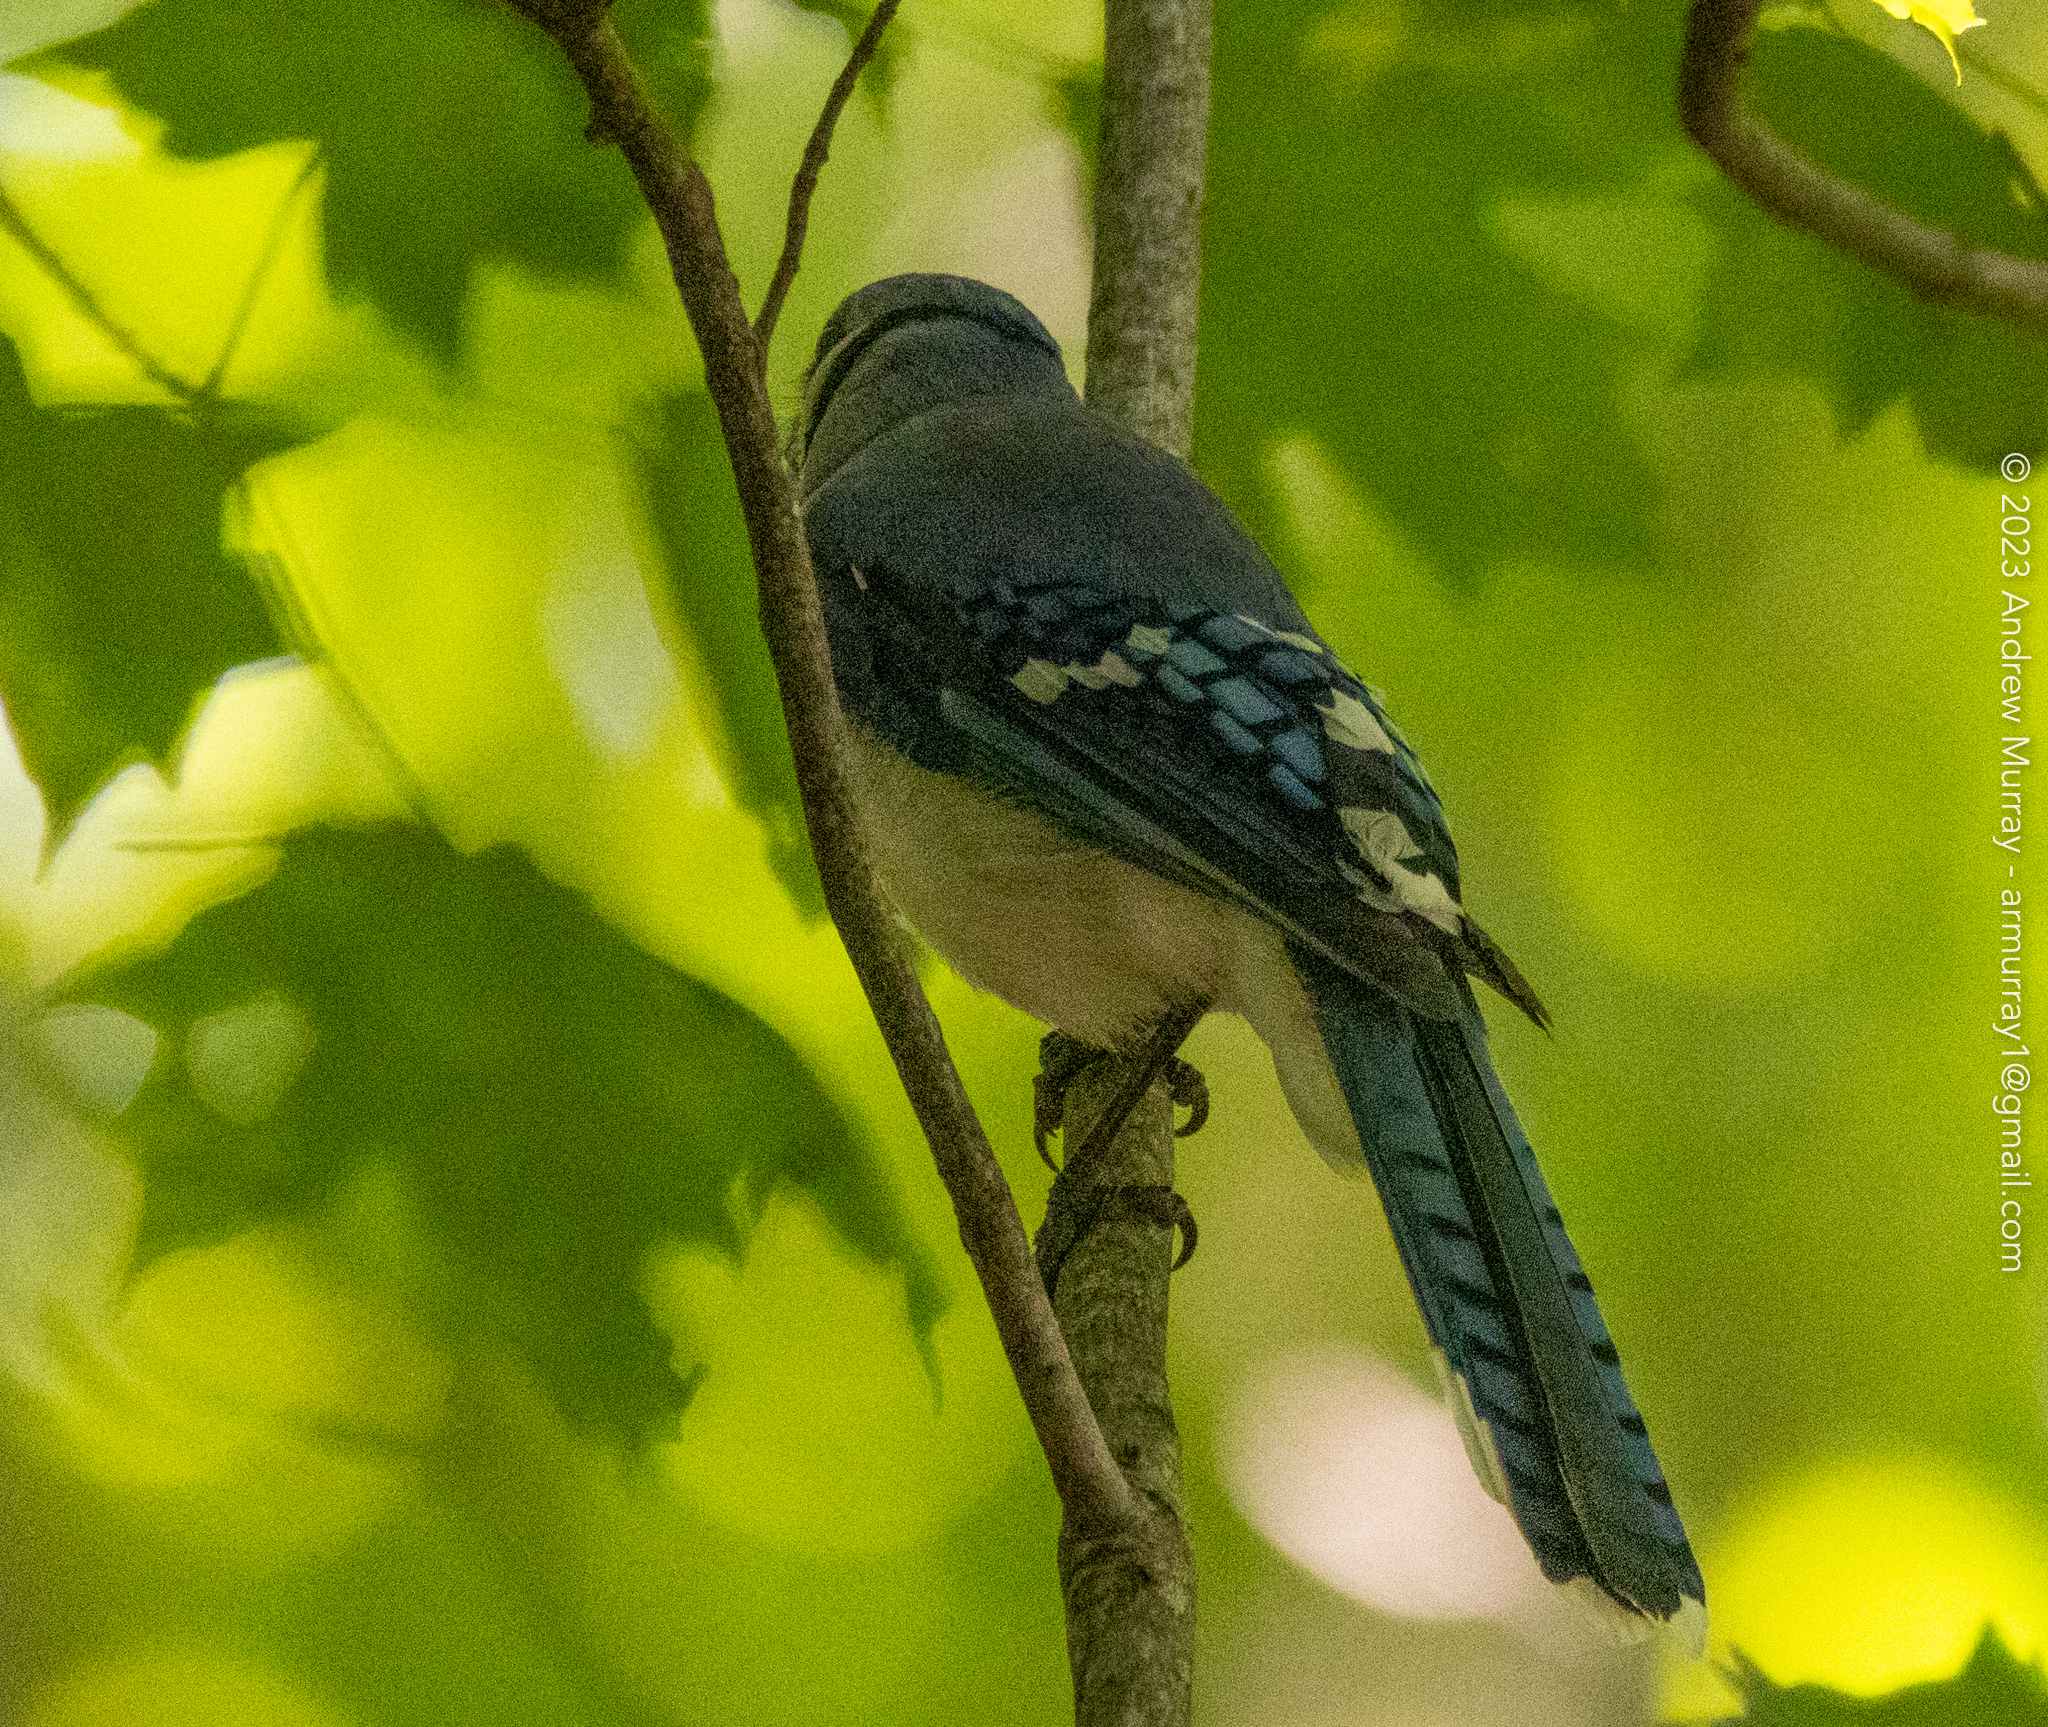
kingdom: Animalia
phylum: Chordata
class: Aves
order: Passeriformes
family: Corvidae
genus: Cyanocitta
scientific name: Cyanocitta cristata
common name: Blue jay
